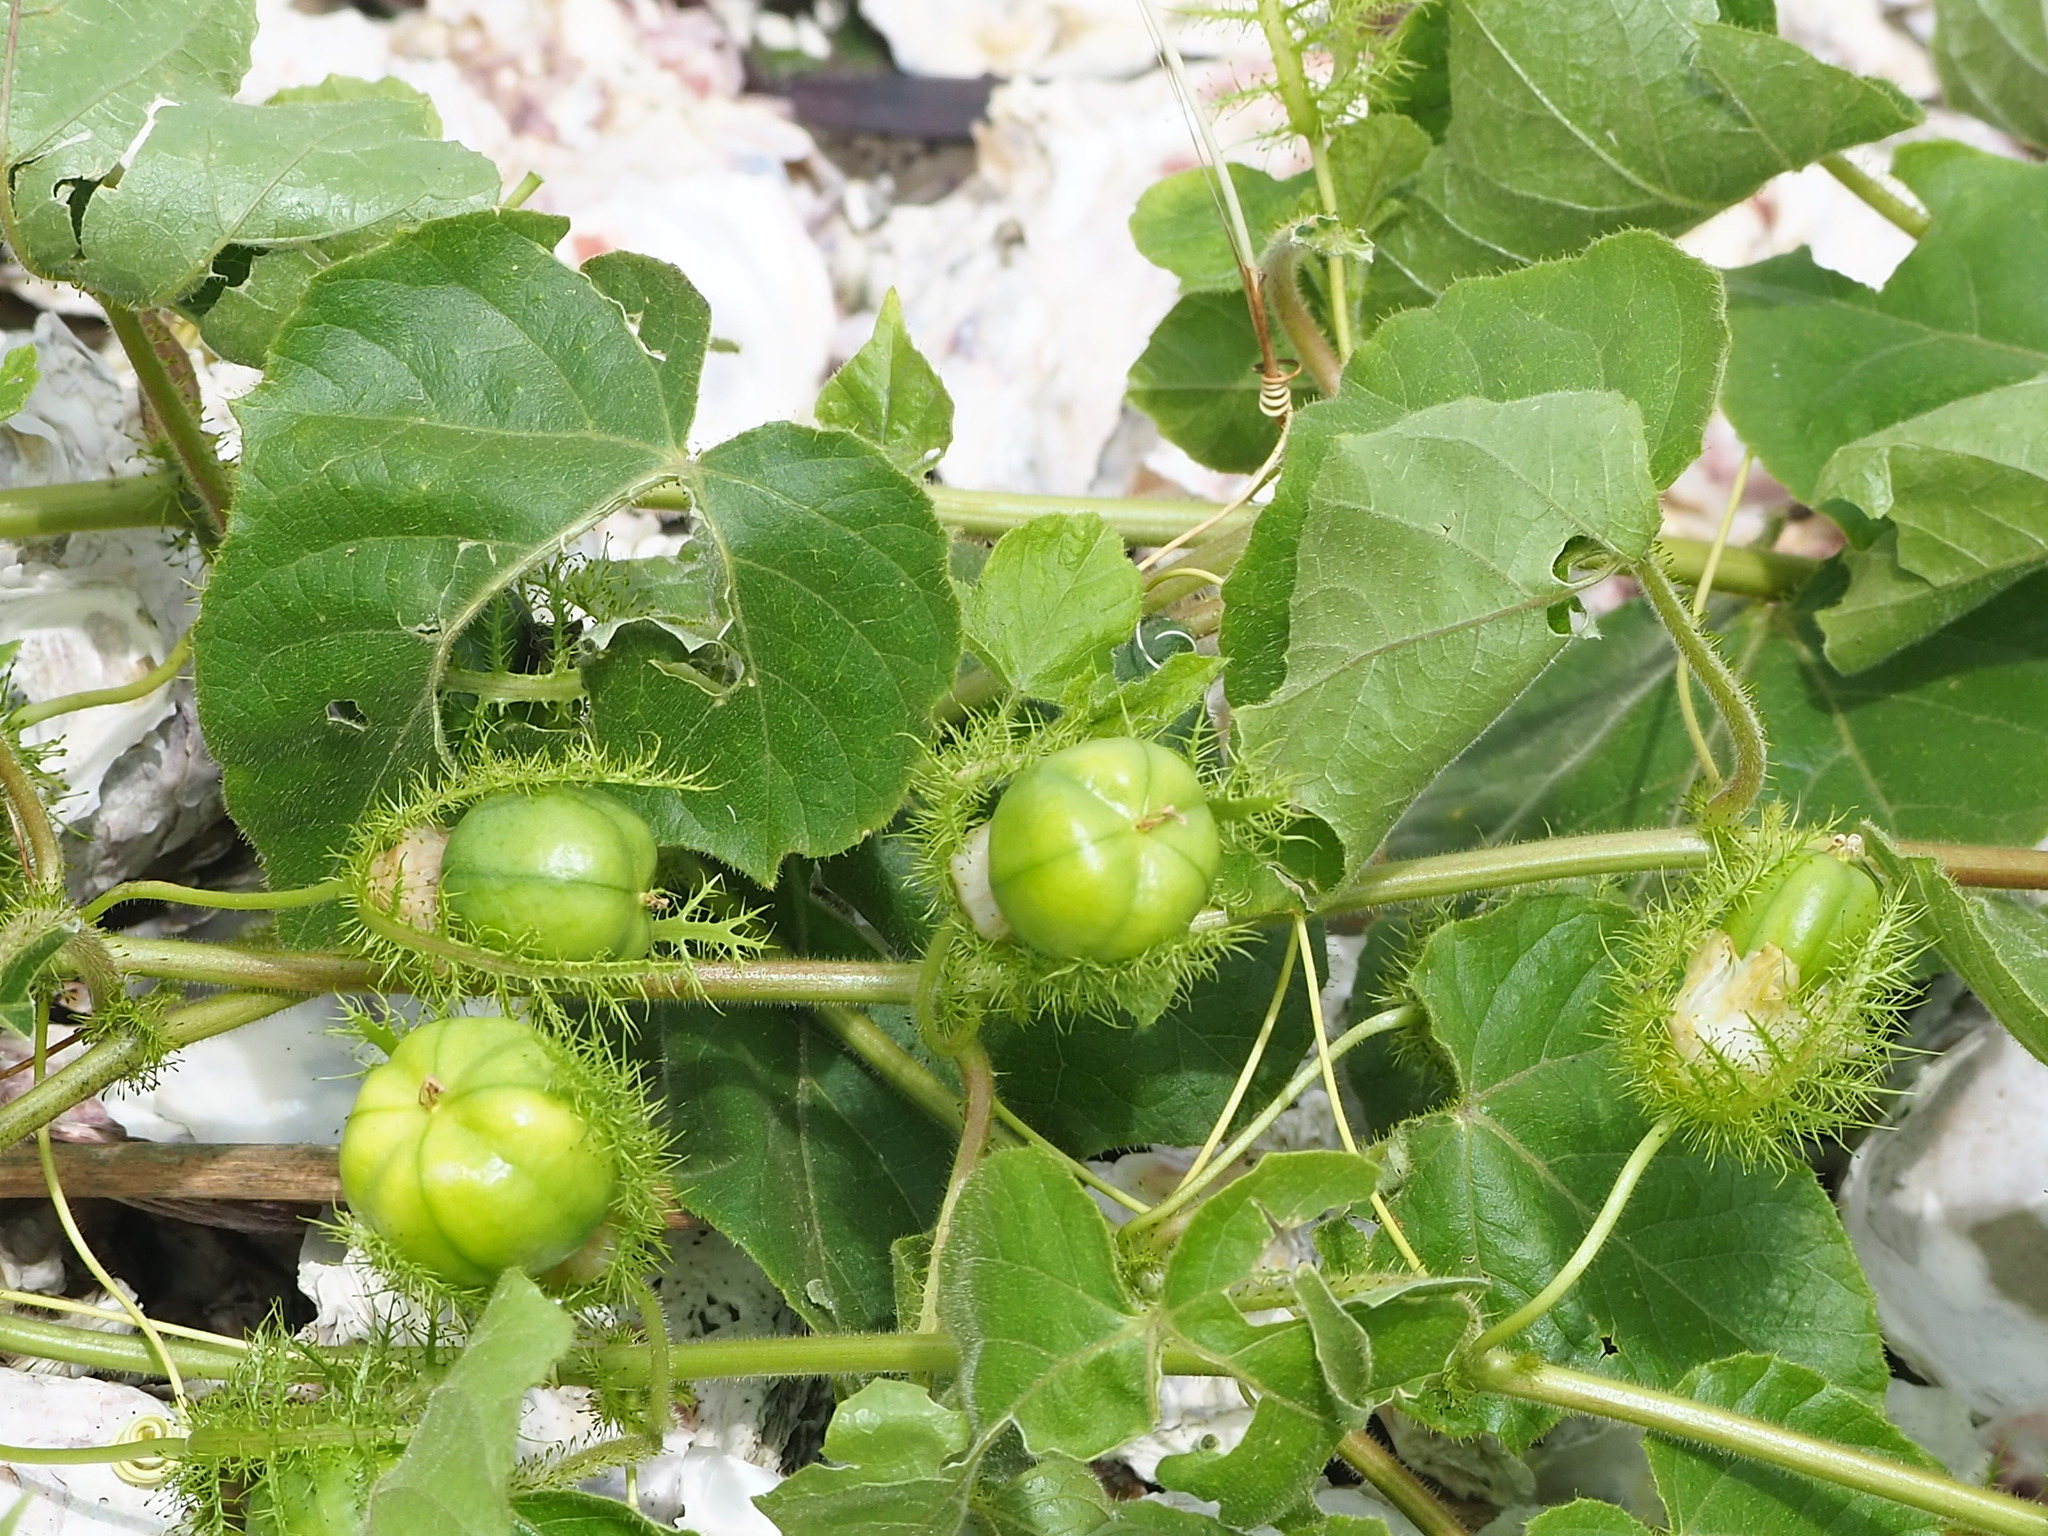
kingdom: Plantae
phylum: Tracheophyta
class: Magnoliopsida
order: Malpighiales
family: Passifloraceae
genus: Passiflora
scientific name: Passiflora vesicaria
